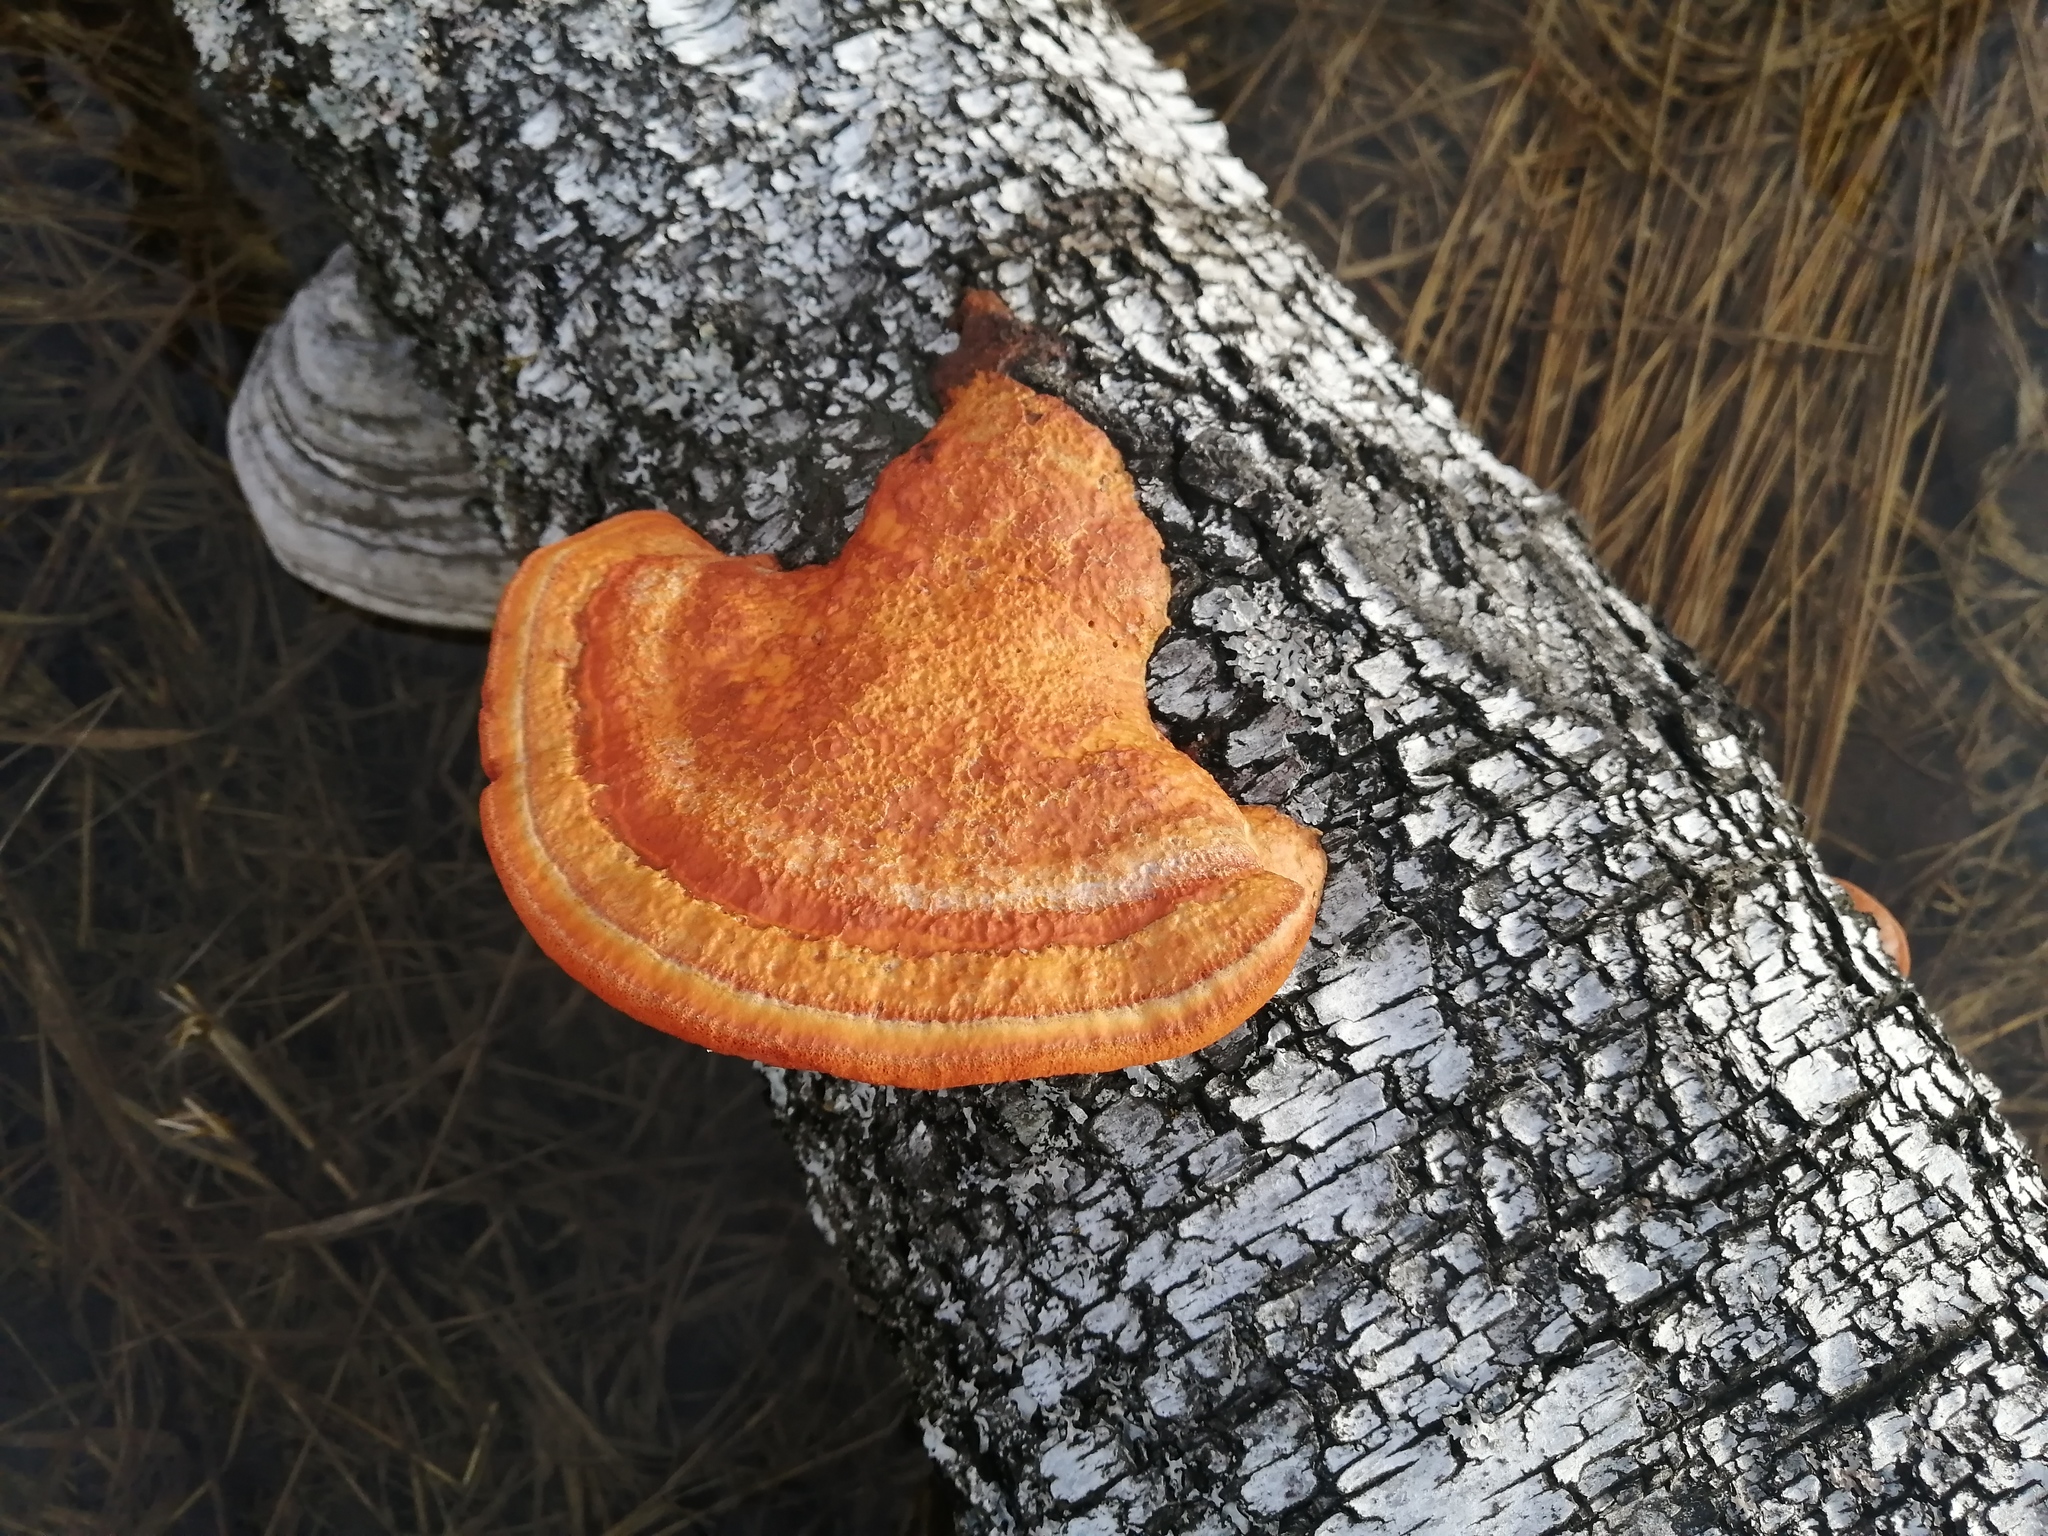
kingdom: Fungi
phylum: Basidiomycota
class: Agaricomycetes
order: Polyporales
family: Polyporaceae
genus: Trametes
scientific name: Trametes cinnabarina
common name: Northern cinnabar polypore
